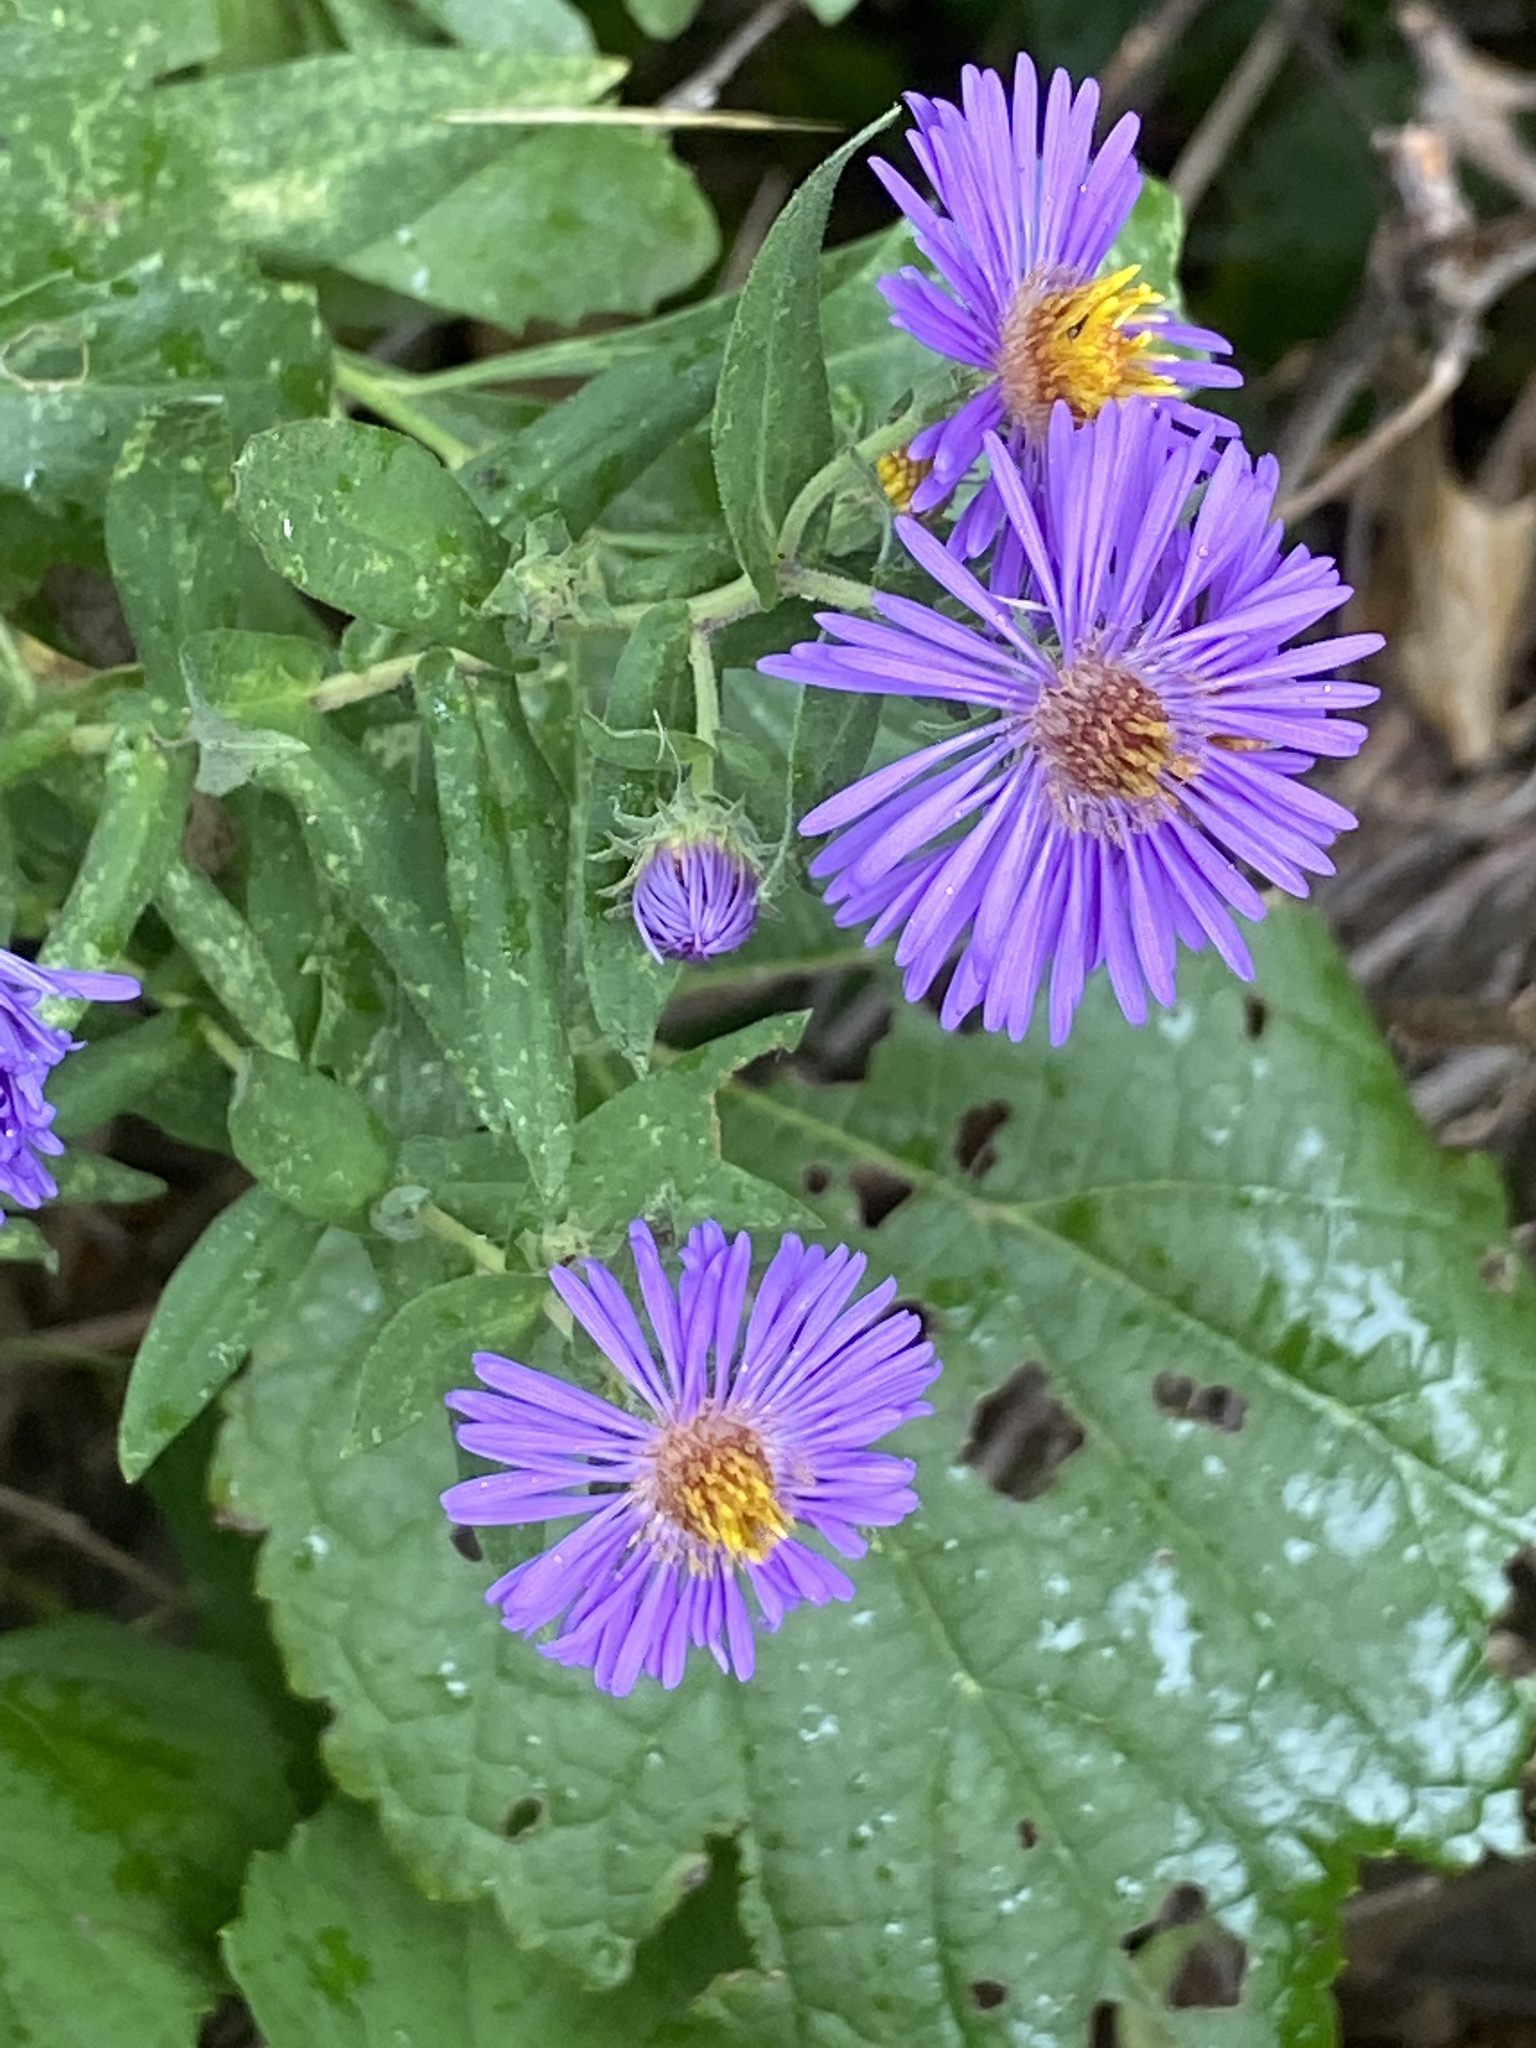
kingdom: Plantae
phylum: Tracheophyta
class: Magnoliopsida
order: Asterales
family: Asteraceae
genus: Symphyotrichum
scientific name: Symphyotrichum novae-angliae
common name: Michaelmas daisy
